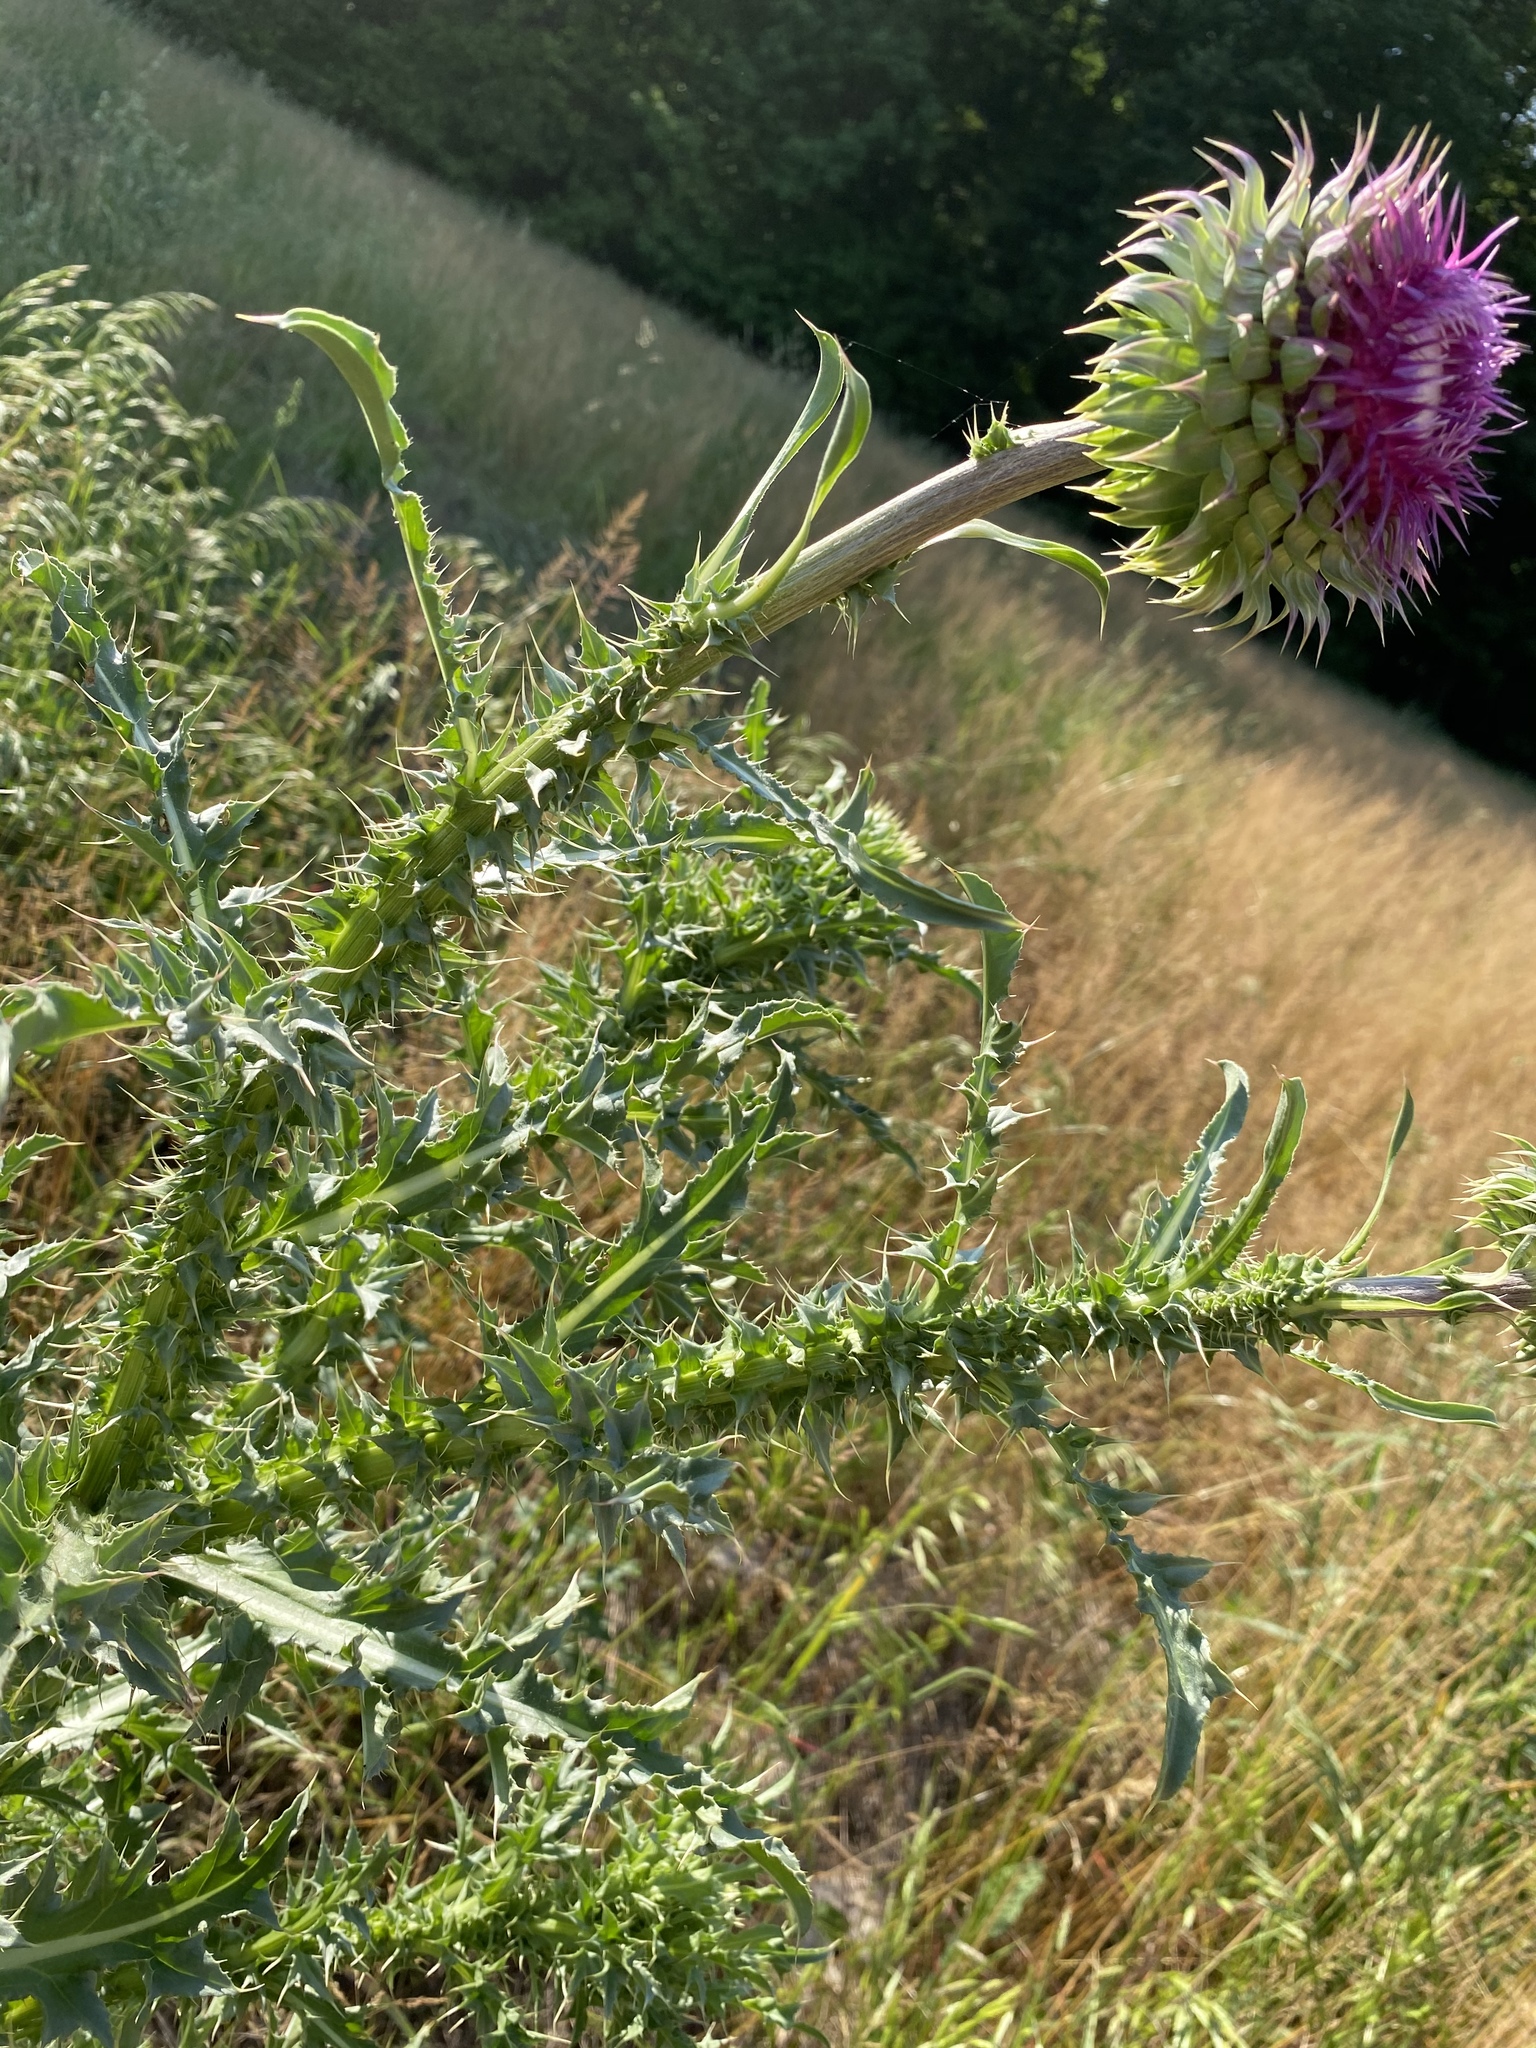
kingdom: Plantae
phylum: Tracheophyta
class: Magnoliopsida
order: Asterales
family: Asteraceae
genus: Carduus
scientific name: Carduus nutans
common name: Musk thistle
